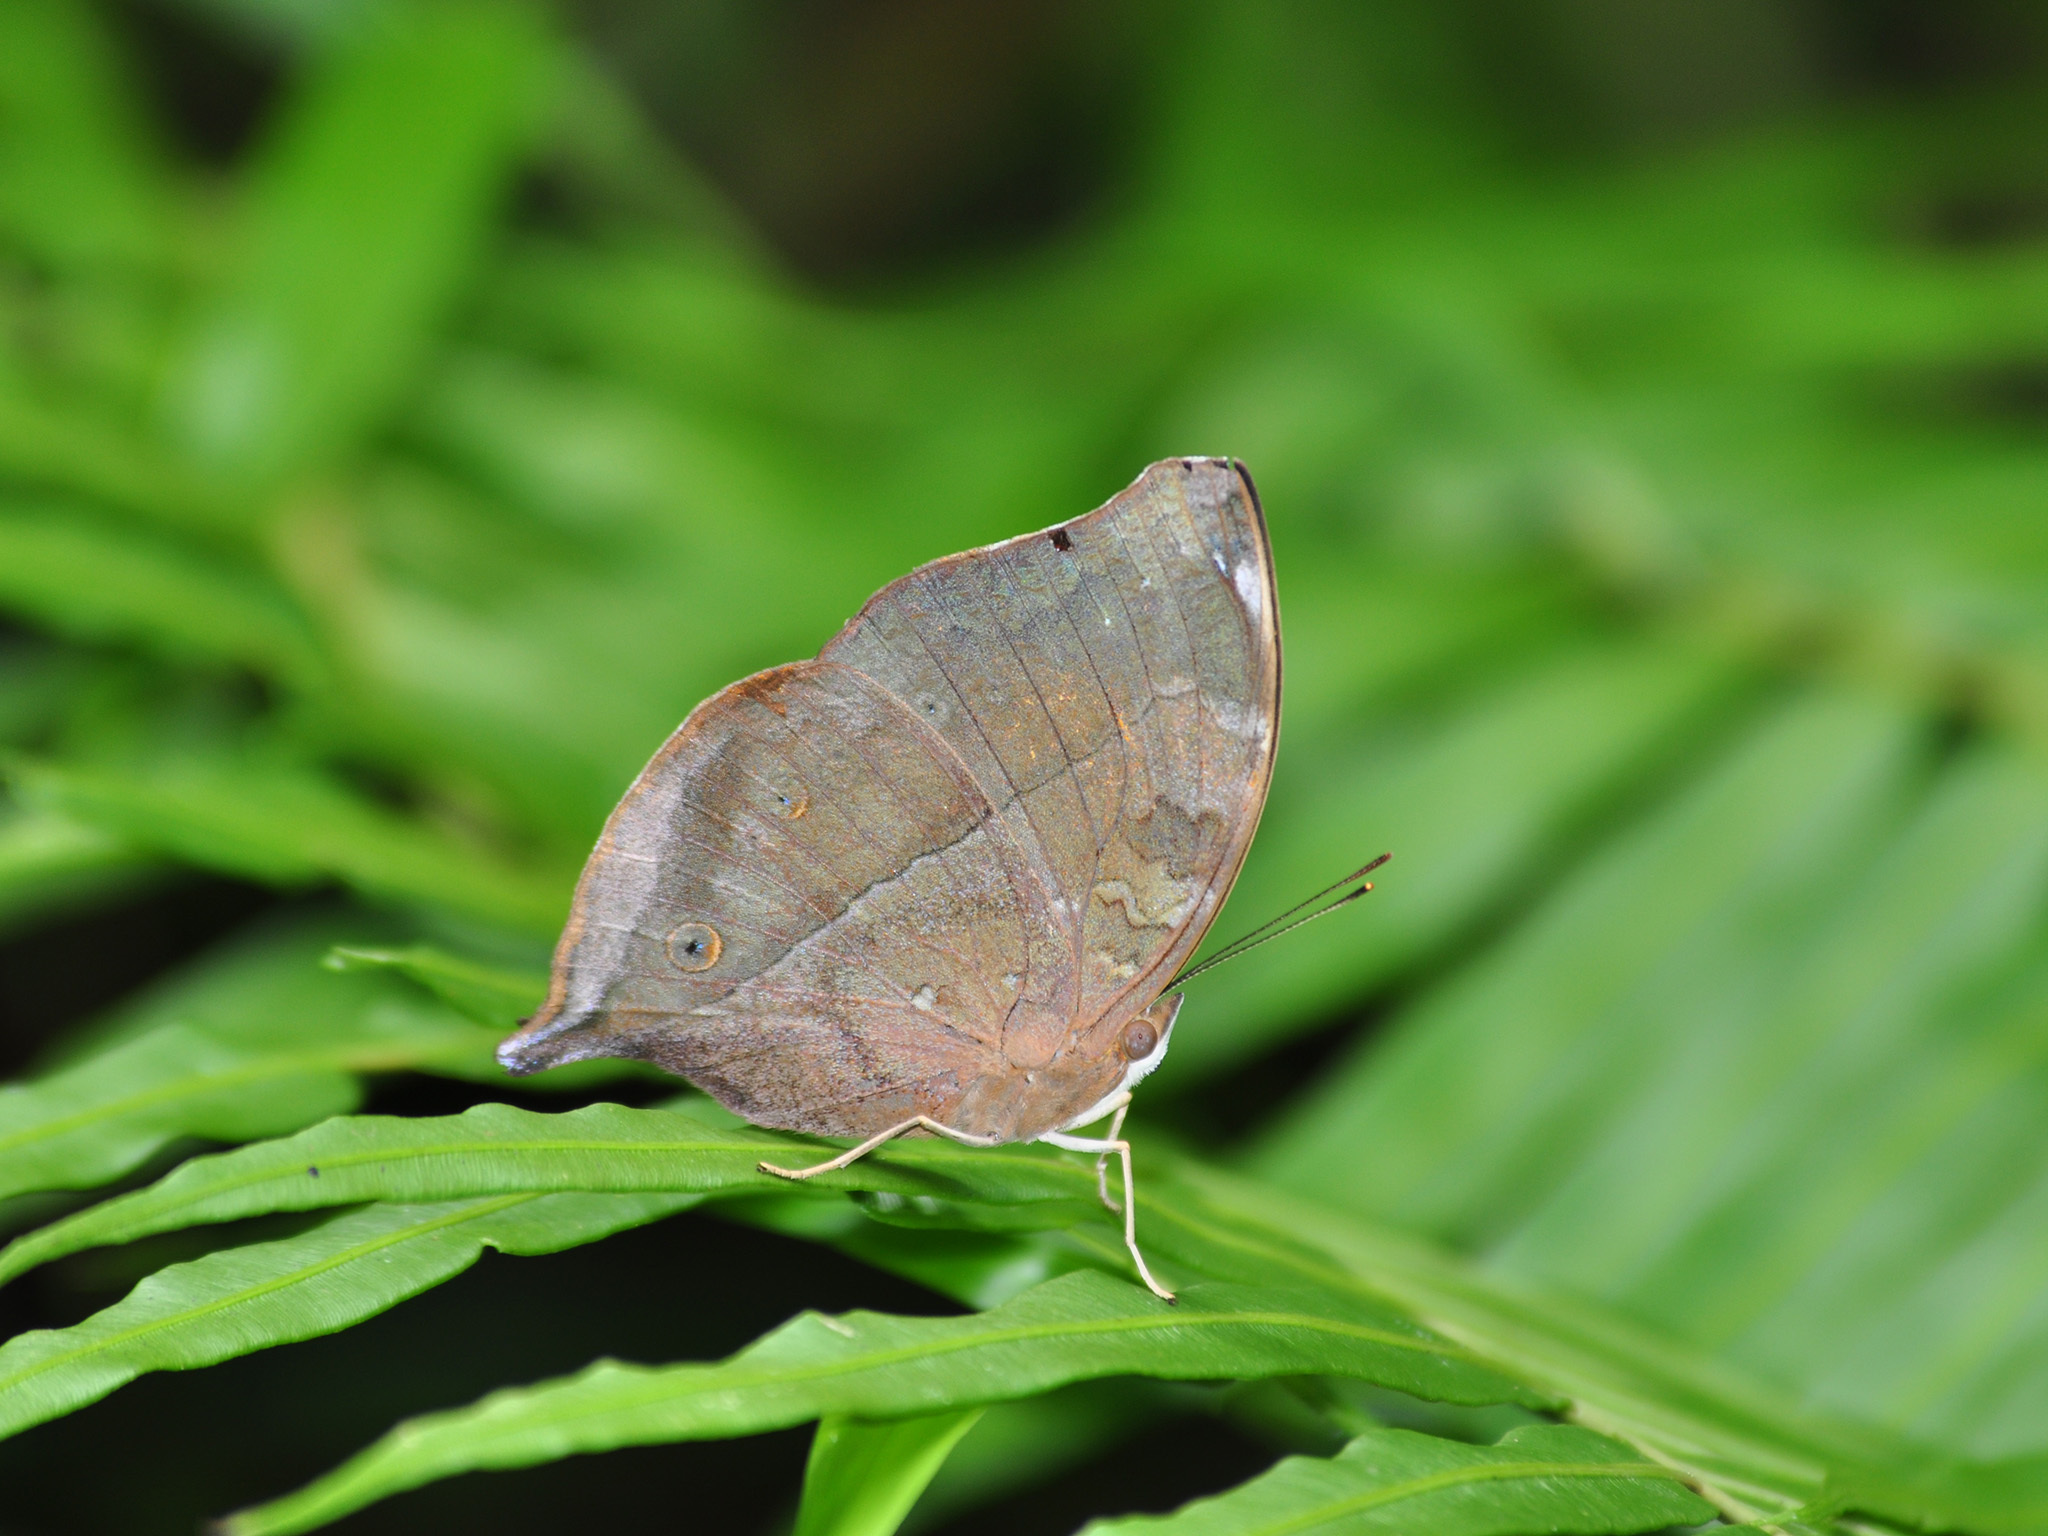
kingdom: Animalia
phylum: Arthropoda
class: Insecta
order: Lepidoptera
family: Nymphalidae
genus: Doleschallia
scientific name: Doleschallia bisaltide
